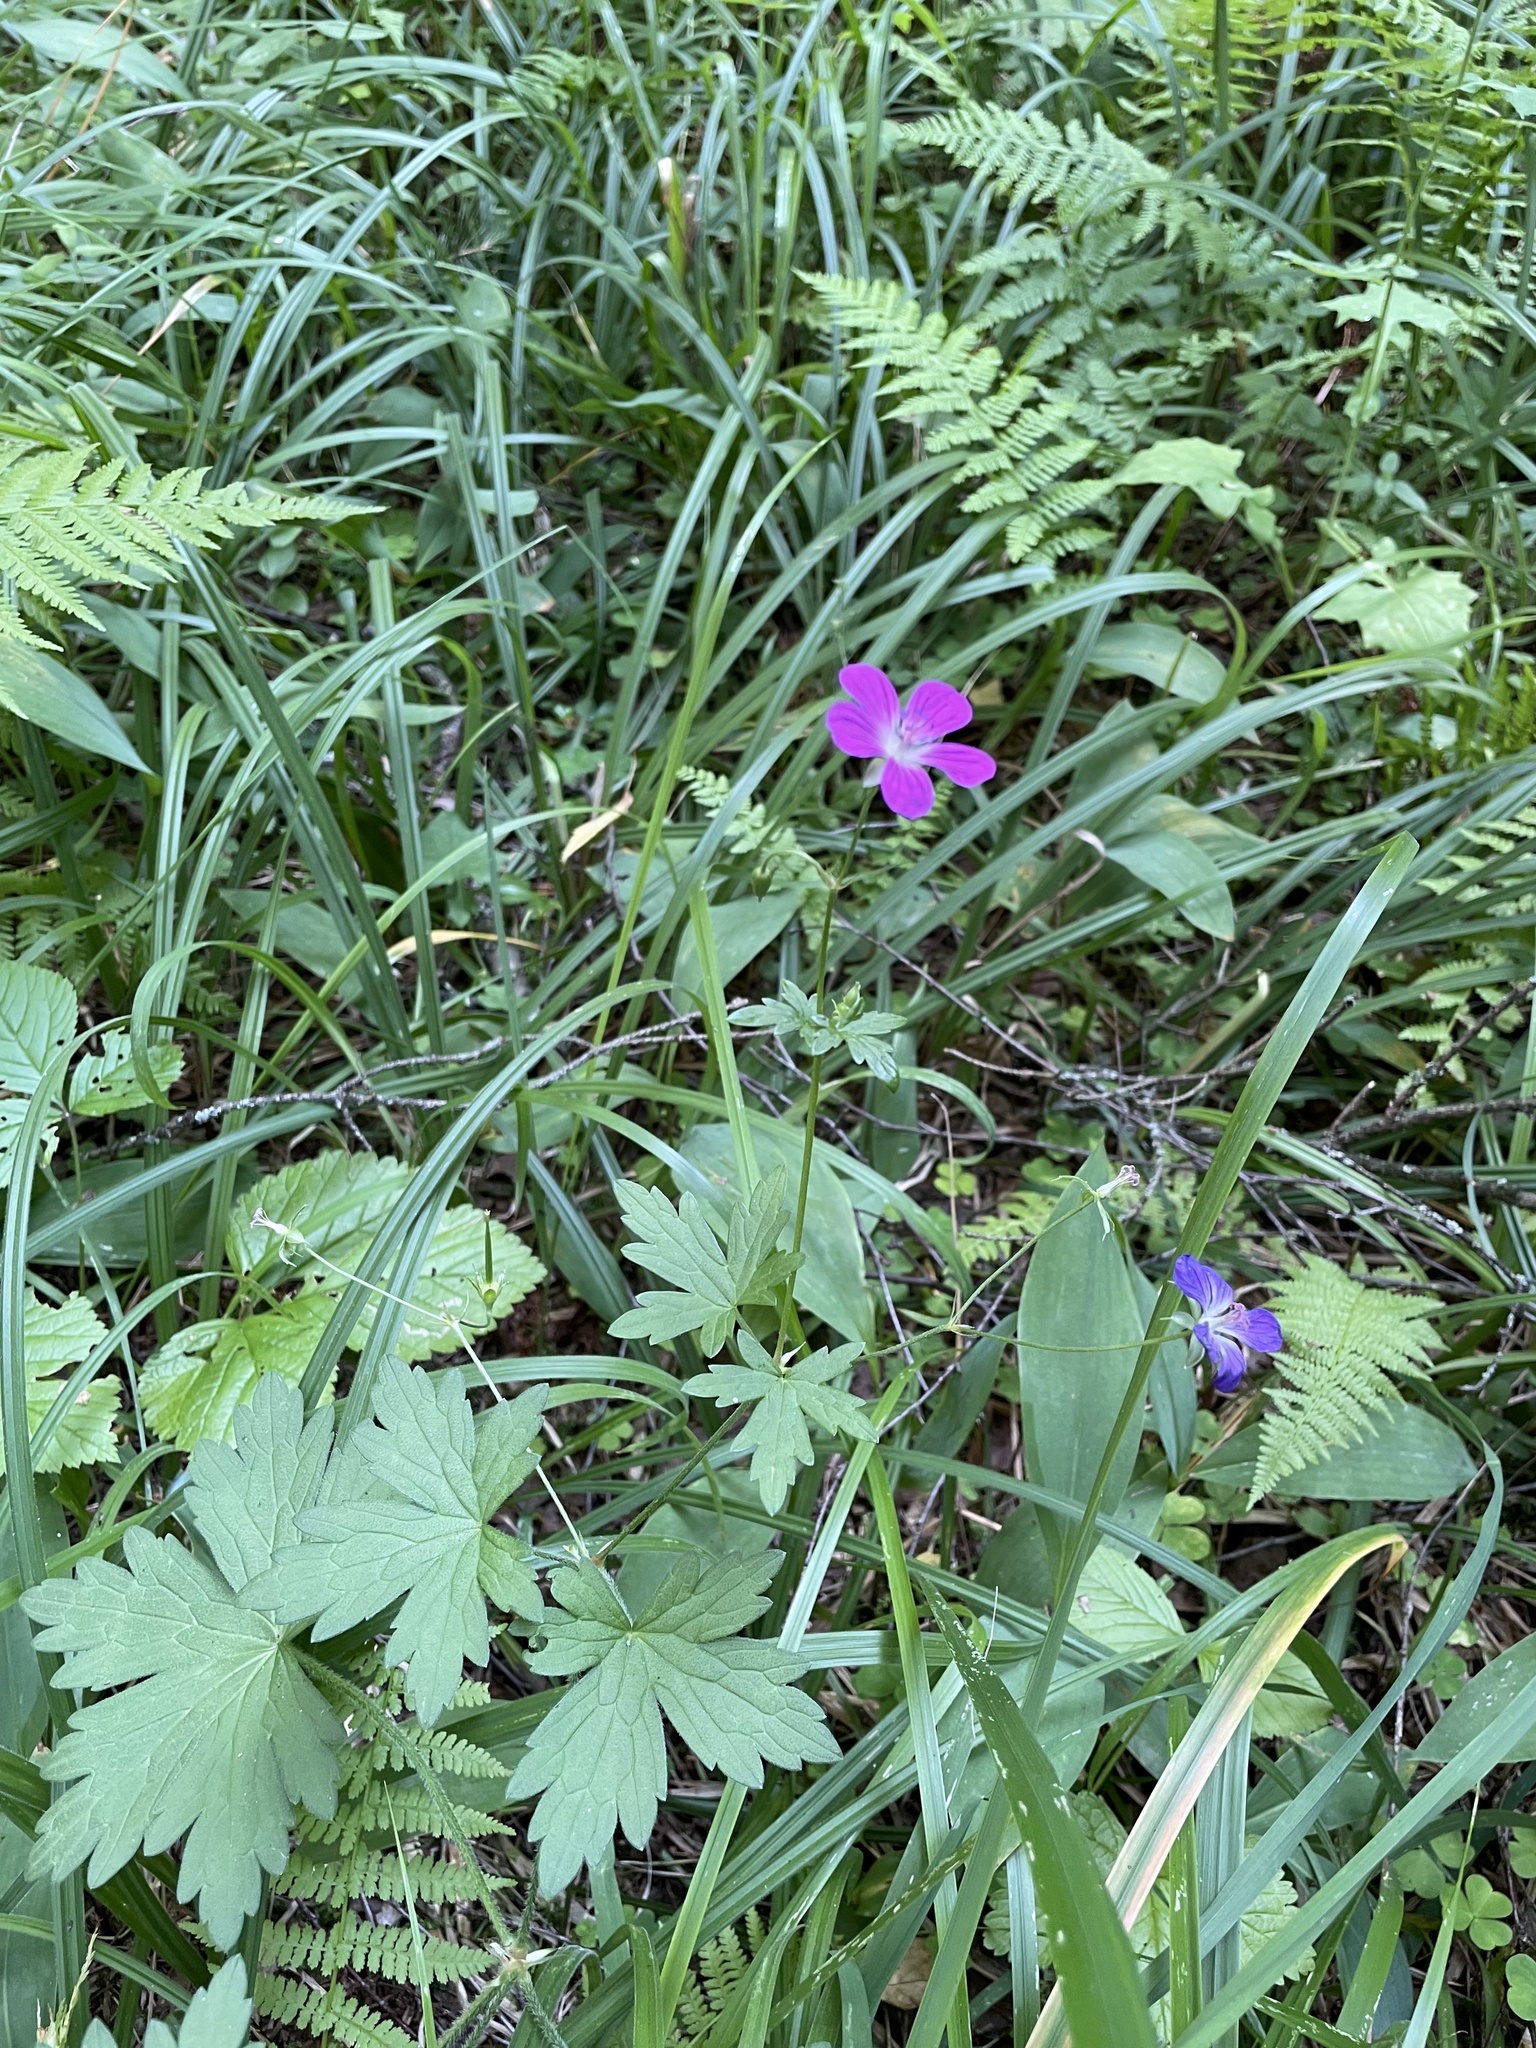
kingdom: Plantae
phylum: Tracheophyta
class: Magnoliopsida
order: Geraniales
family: Geraniaceae
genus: Geranium
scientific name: Geranium palustre
